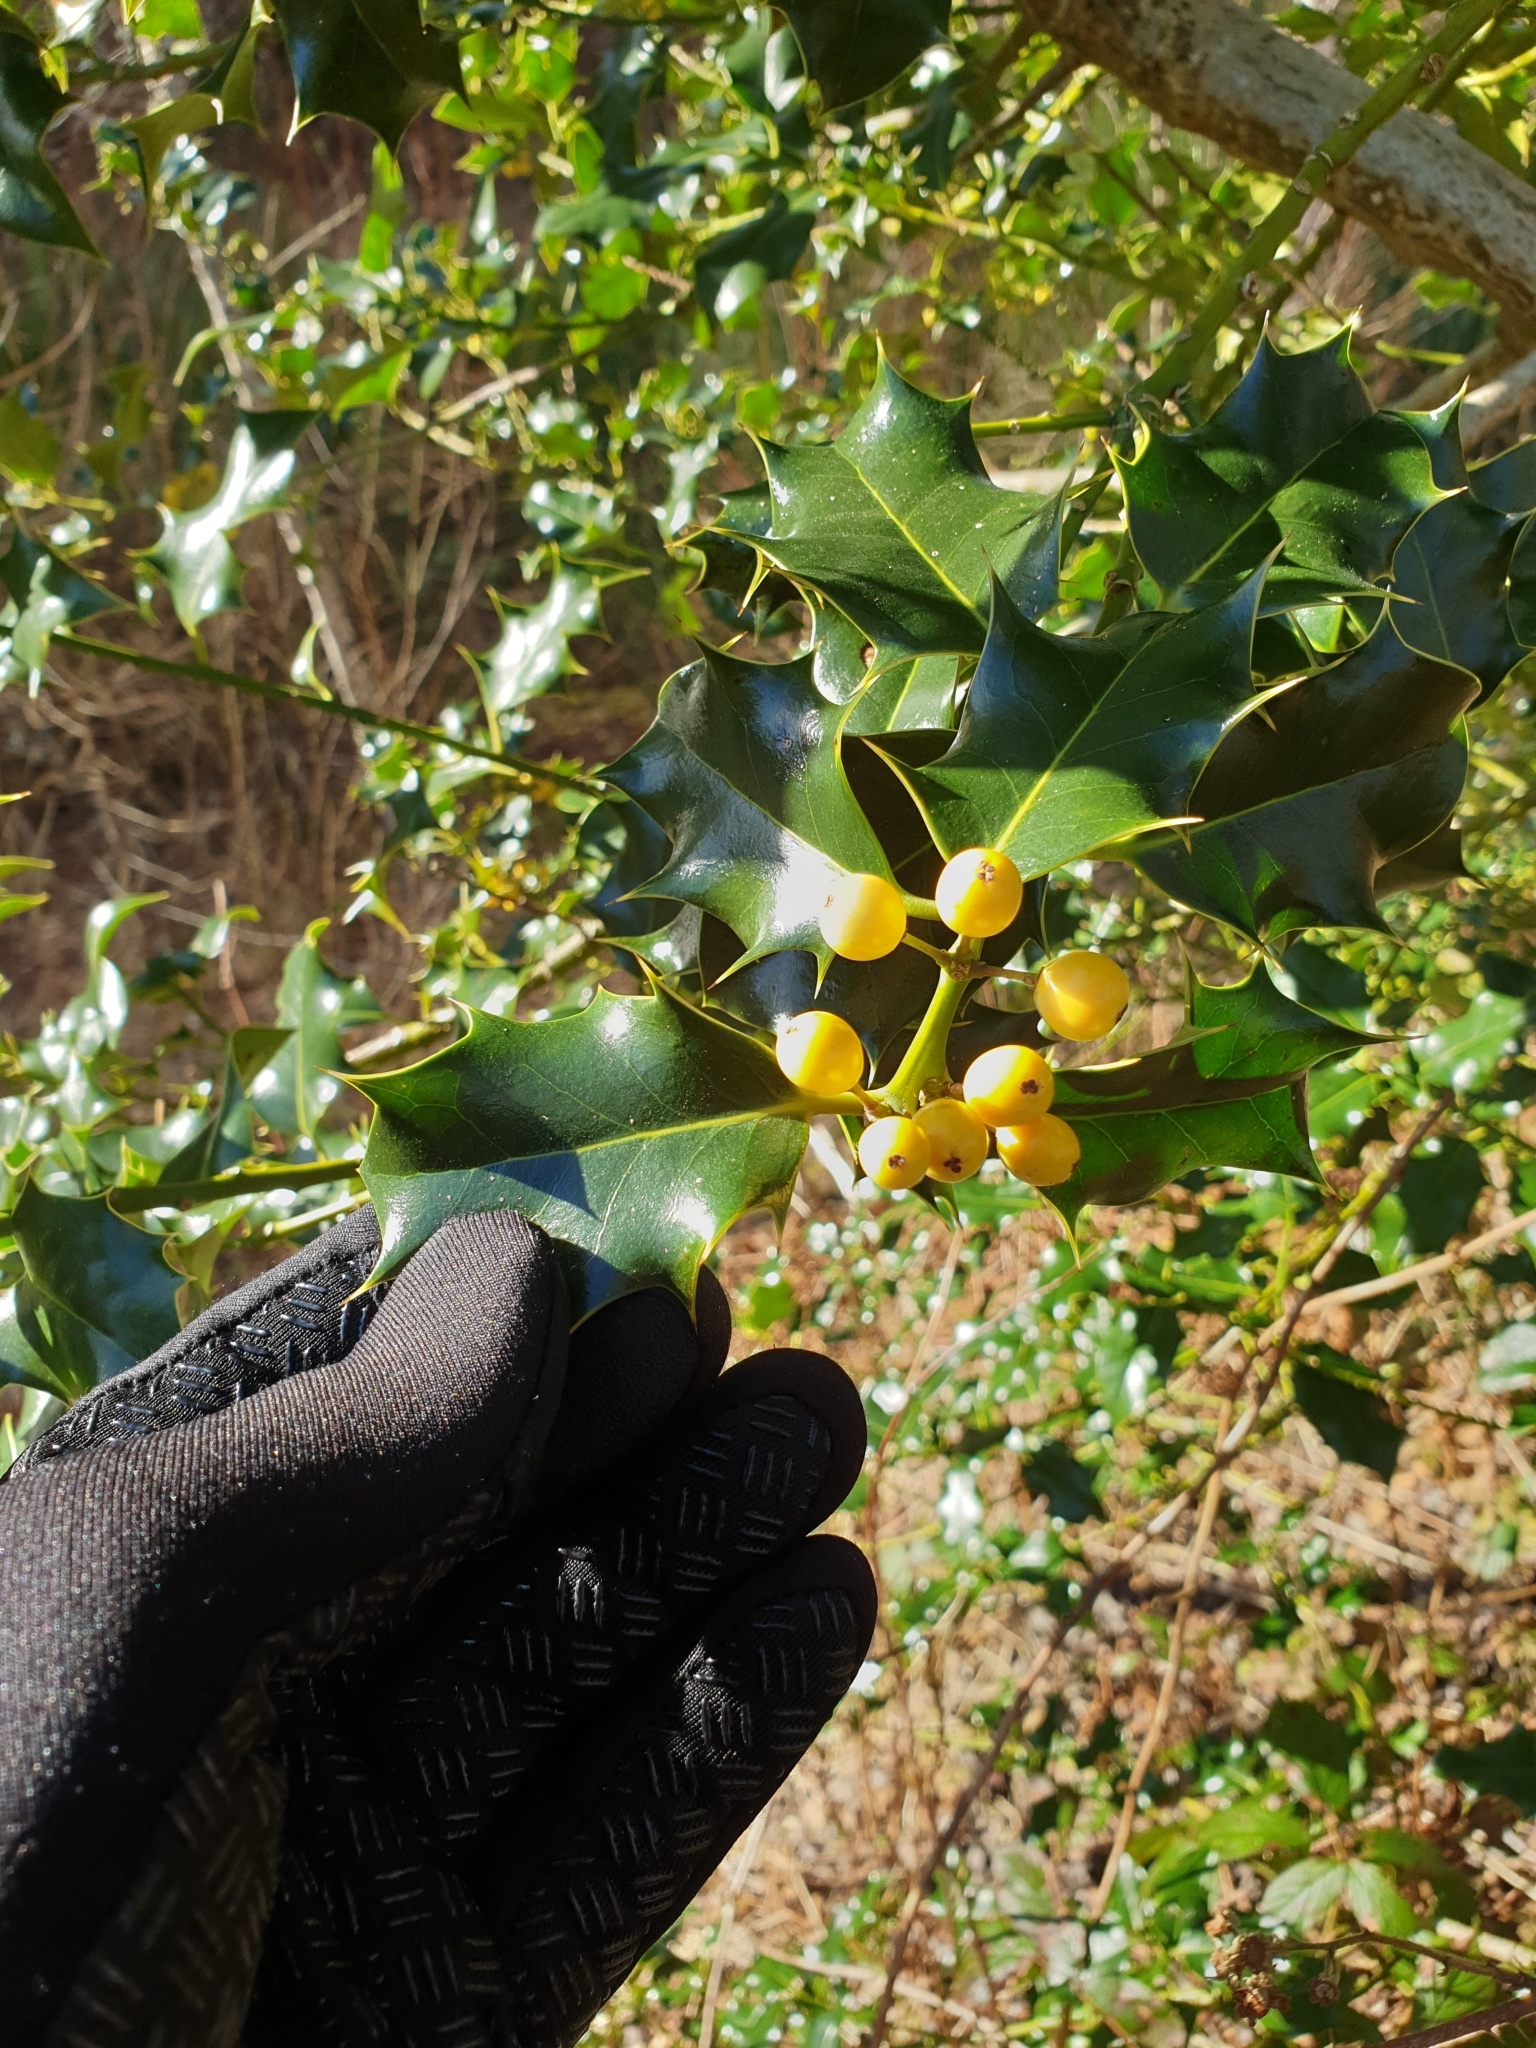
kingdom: Plantae
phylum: Tracheophyta
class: Magnoliopsida
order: Aquifoliales
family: Aquifoliaceae
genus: Ilex
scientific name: Ilex aquifolium
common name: English holly
